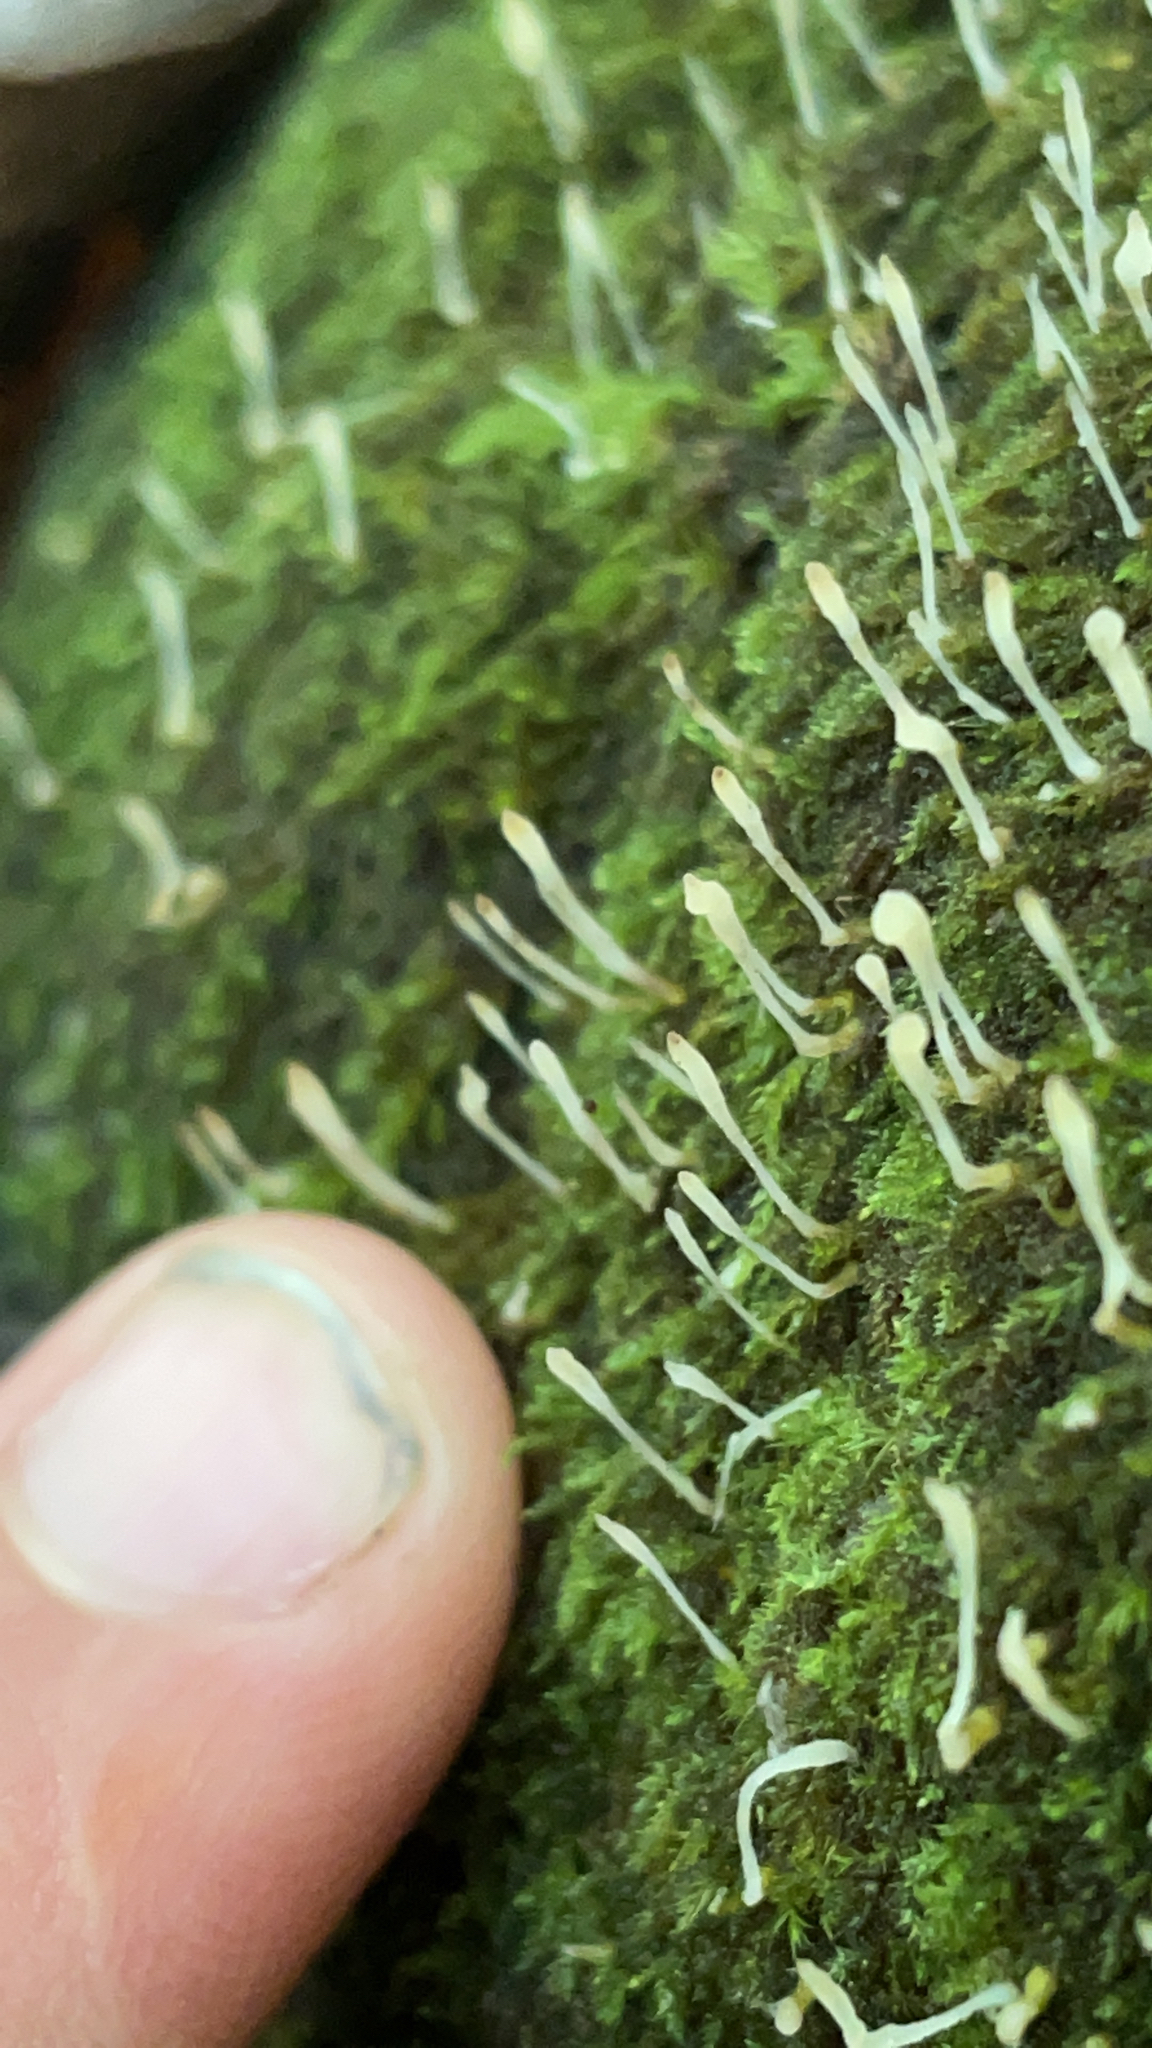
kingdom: Fungi
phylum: Basidiomycota
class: Agaricomycetes
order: Cantharellales
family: Hydnaceae
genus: Multiclavula
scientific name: Multiclavula mucida
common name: White green-algae coral
